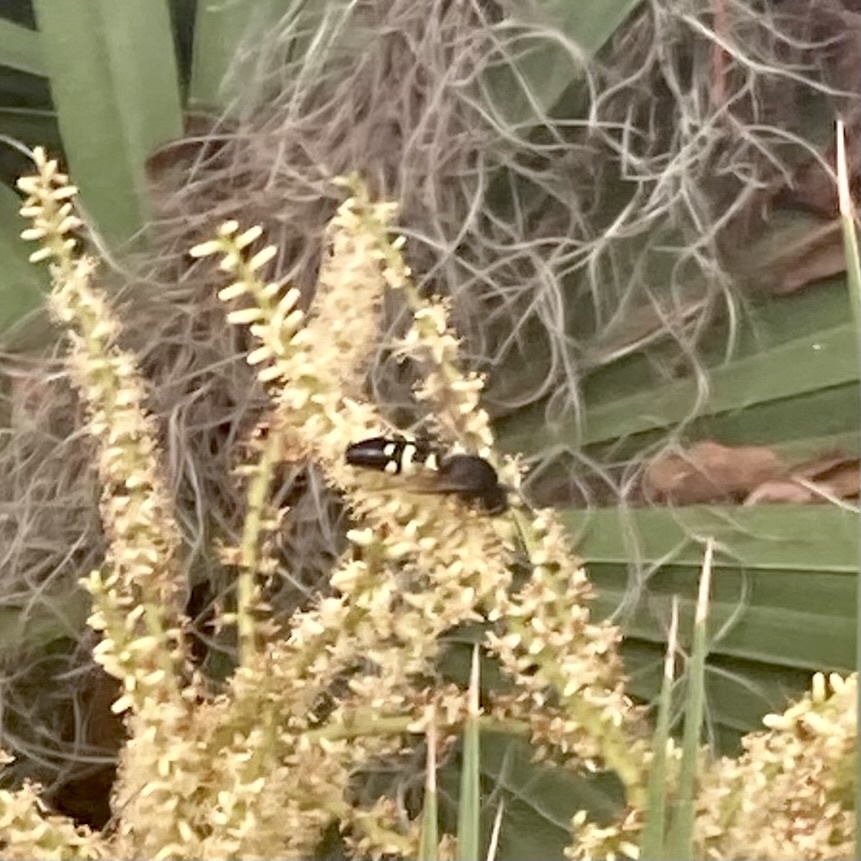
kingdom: Animalia
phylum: Arthropoda
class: Insecta
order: Hymenoptera
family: Crabronidae
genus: Stictia
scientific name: Stictia carolina
